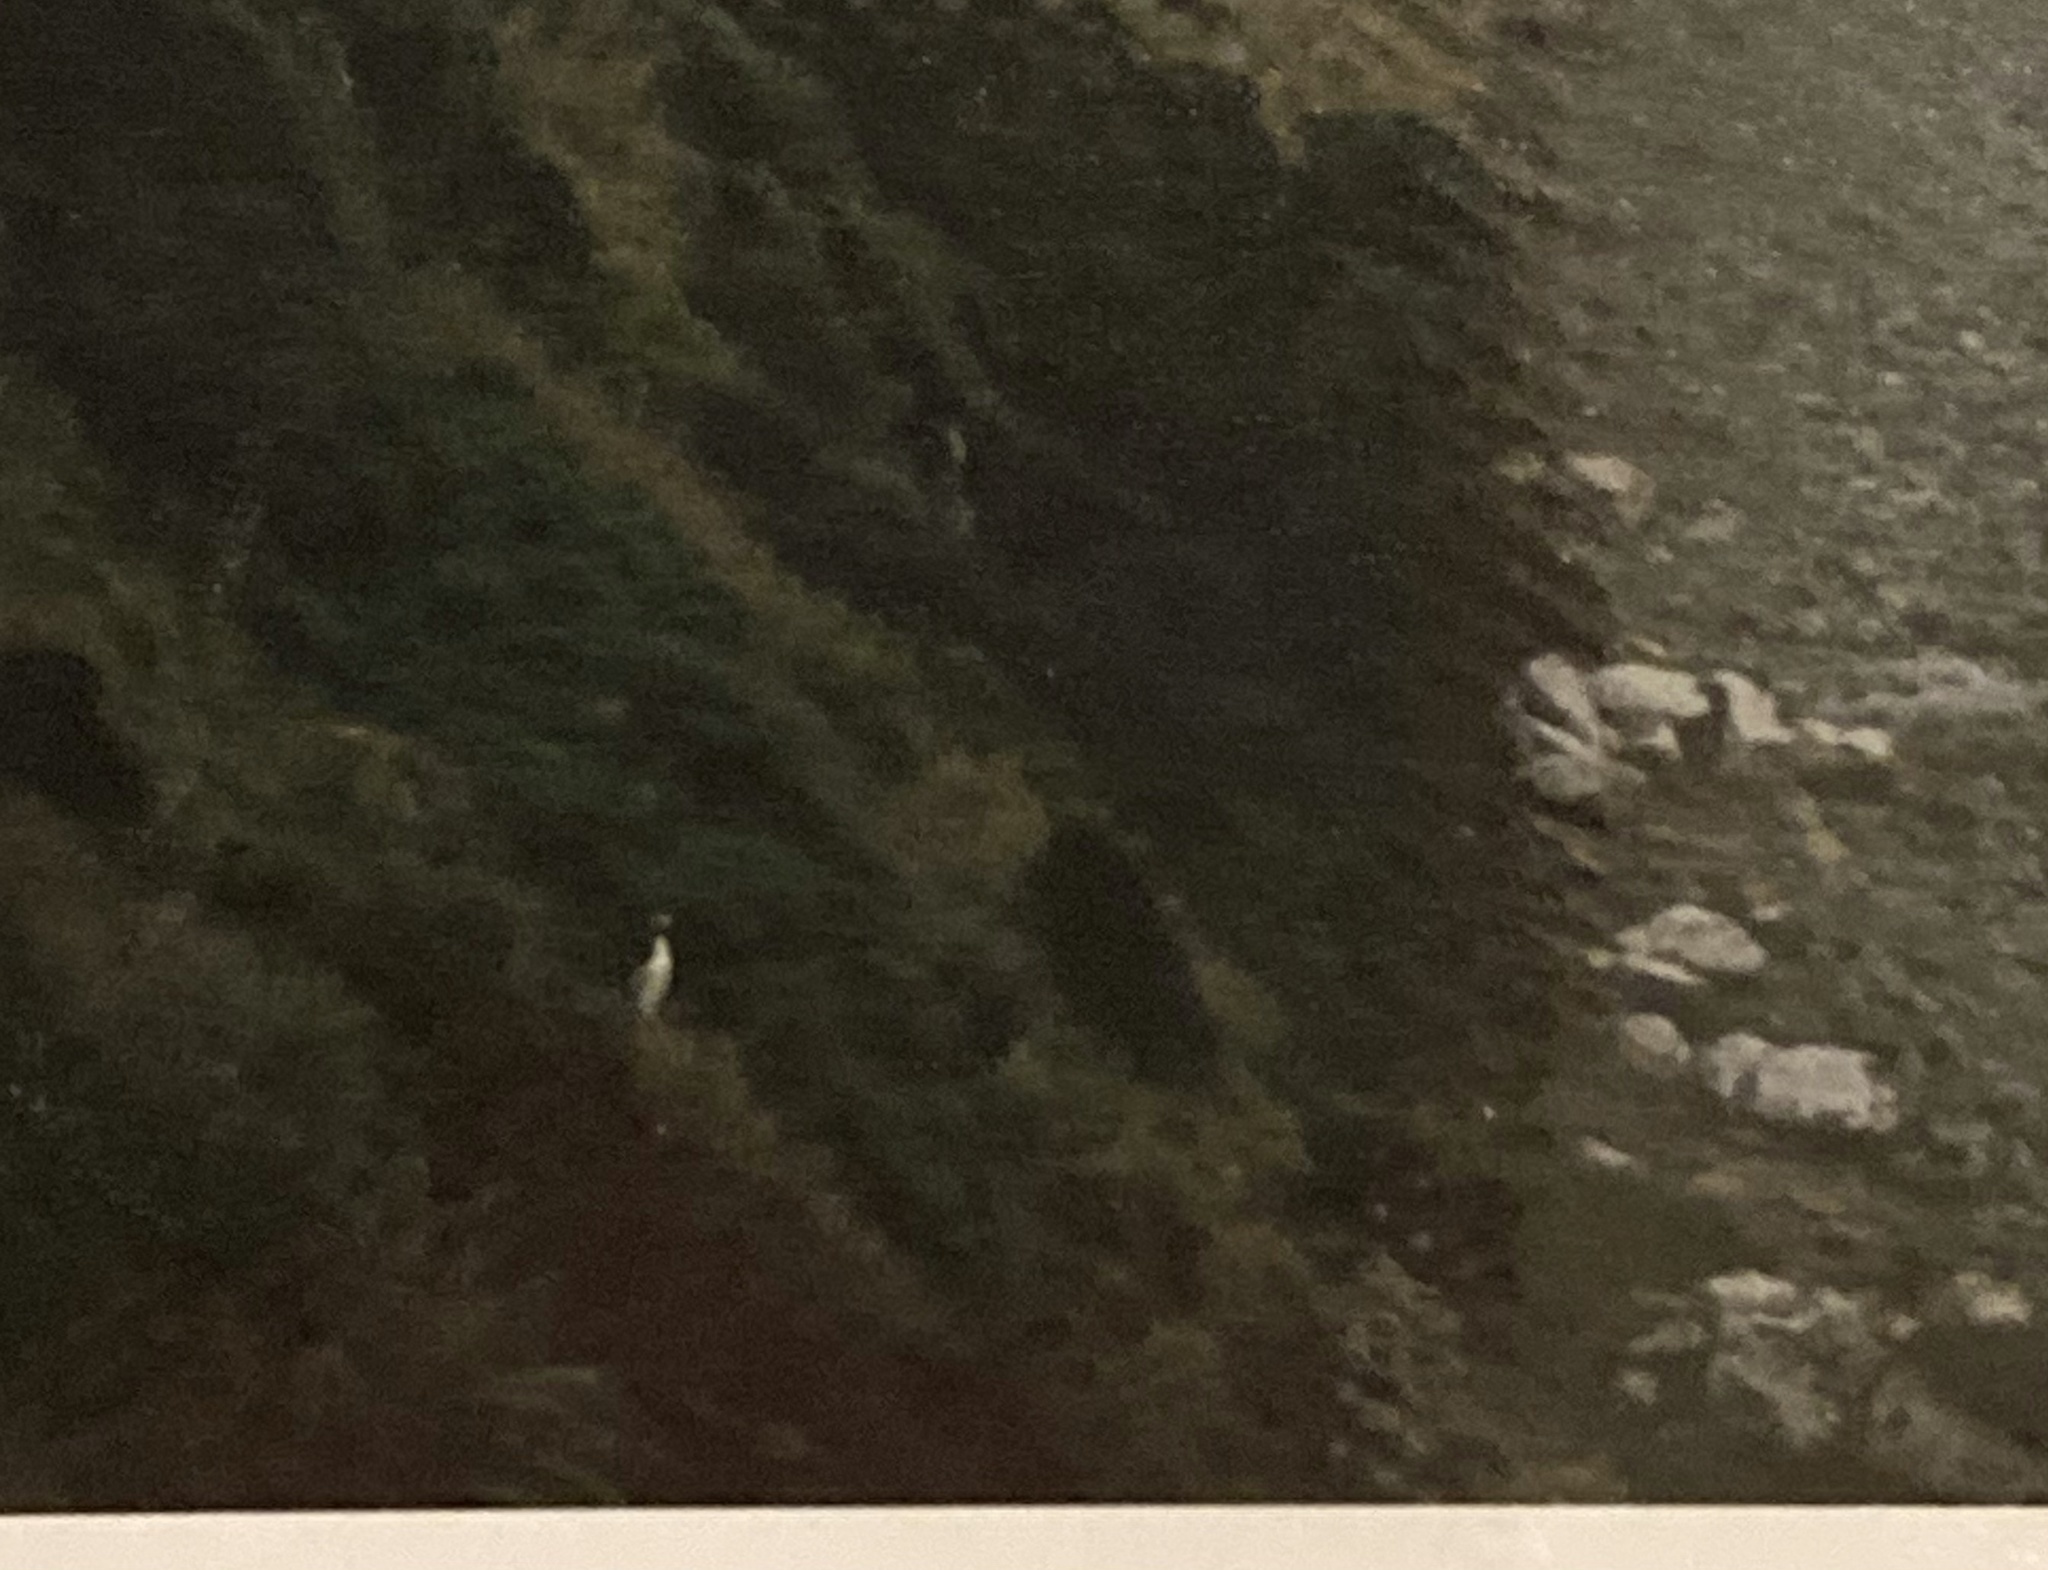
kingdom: Animalia
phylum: Chordata
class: Aves
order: Sphenisciformes
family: Spheniscidae
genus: Megadyptes
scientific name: Megadyptes antipodes
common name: Yellow-eyed penguin
